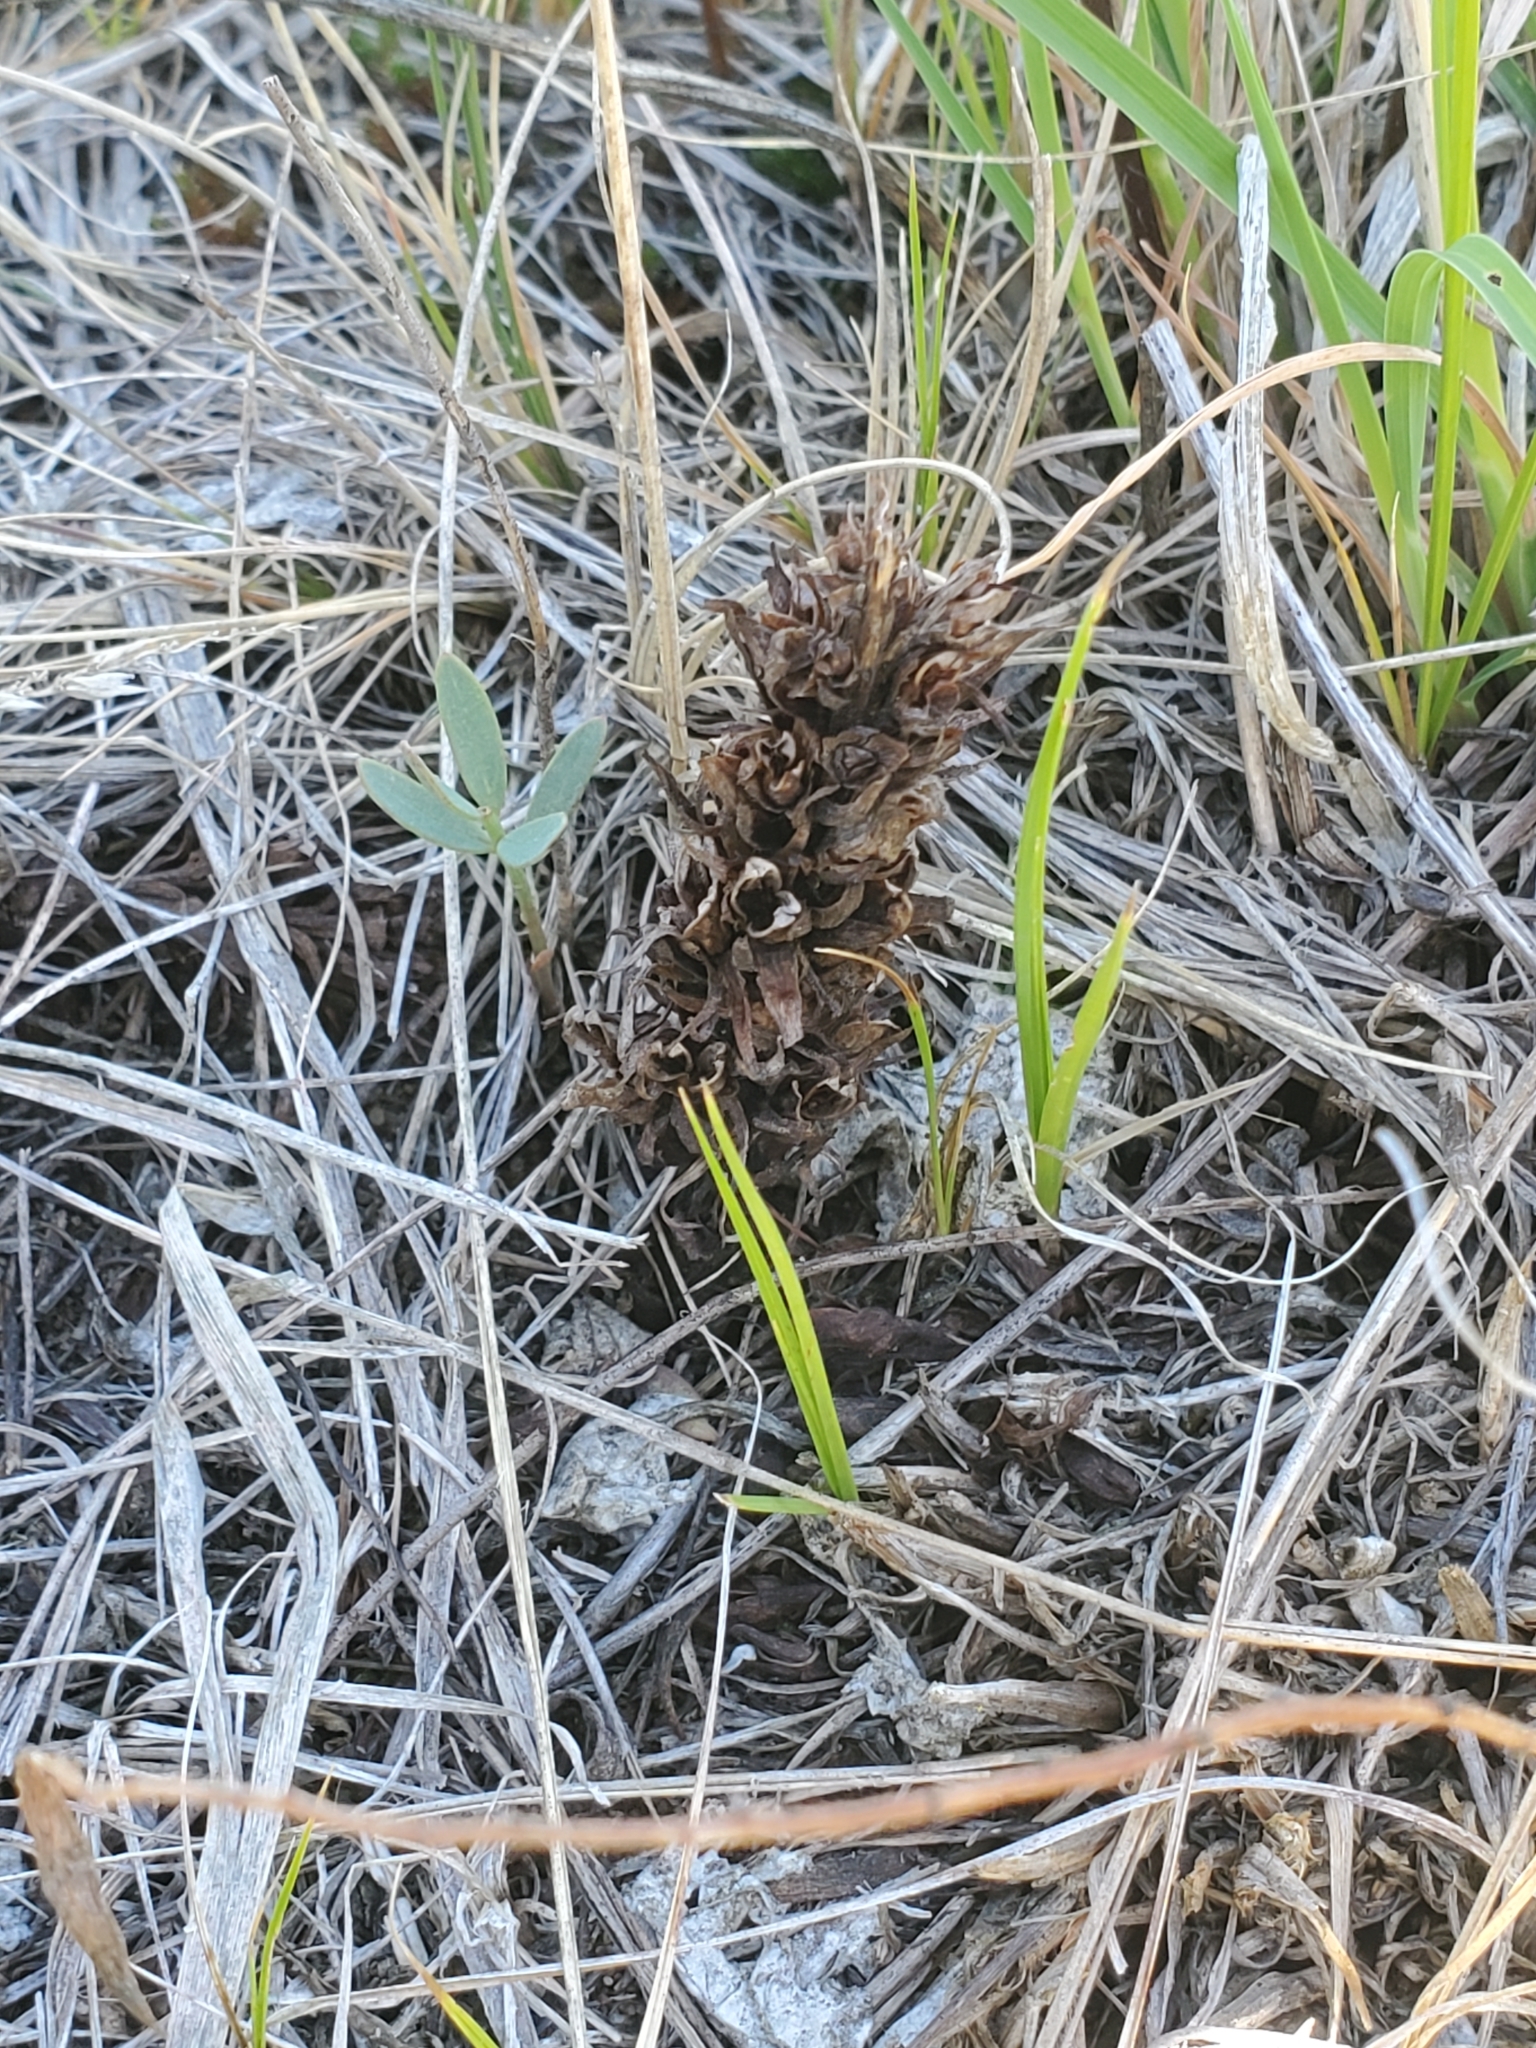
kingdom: Plantae
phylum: Tracheophyta
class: Magnoliopsida
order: Lamiales
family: Orobanchaceae
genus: Aphyllon
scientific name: Aphyllon ludovicianum
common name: Louisiana broomrape
